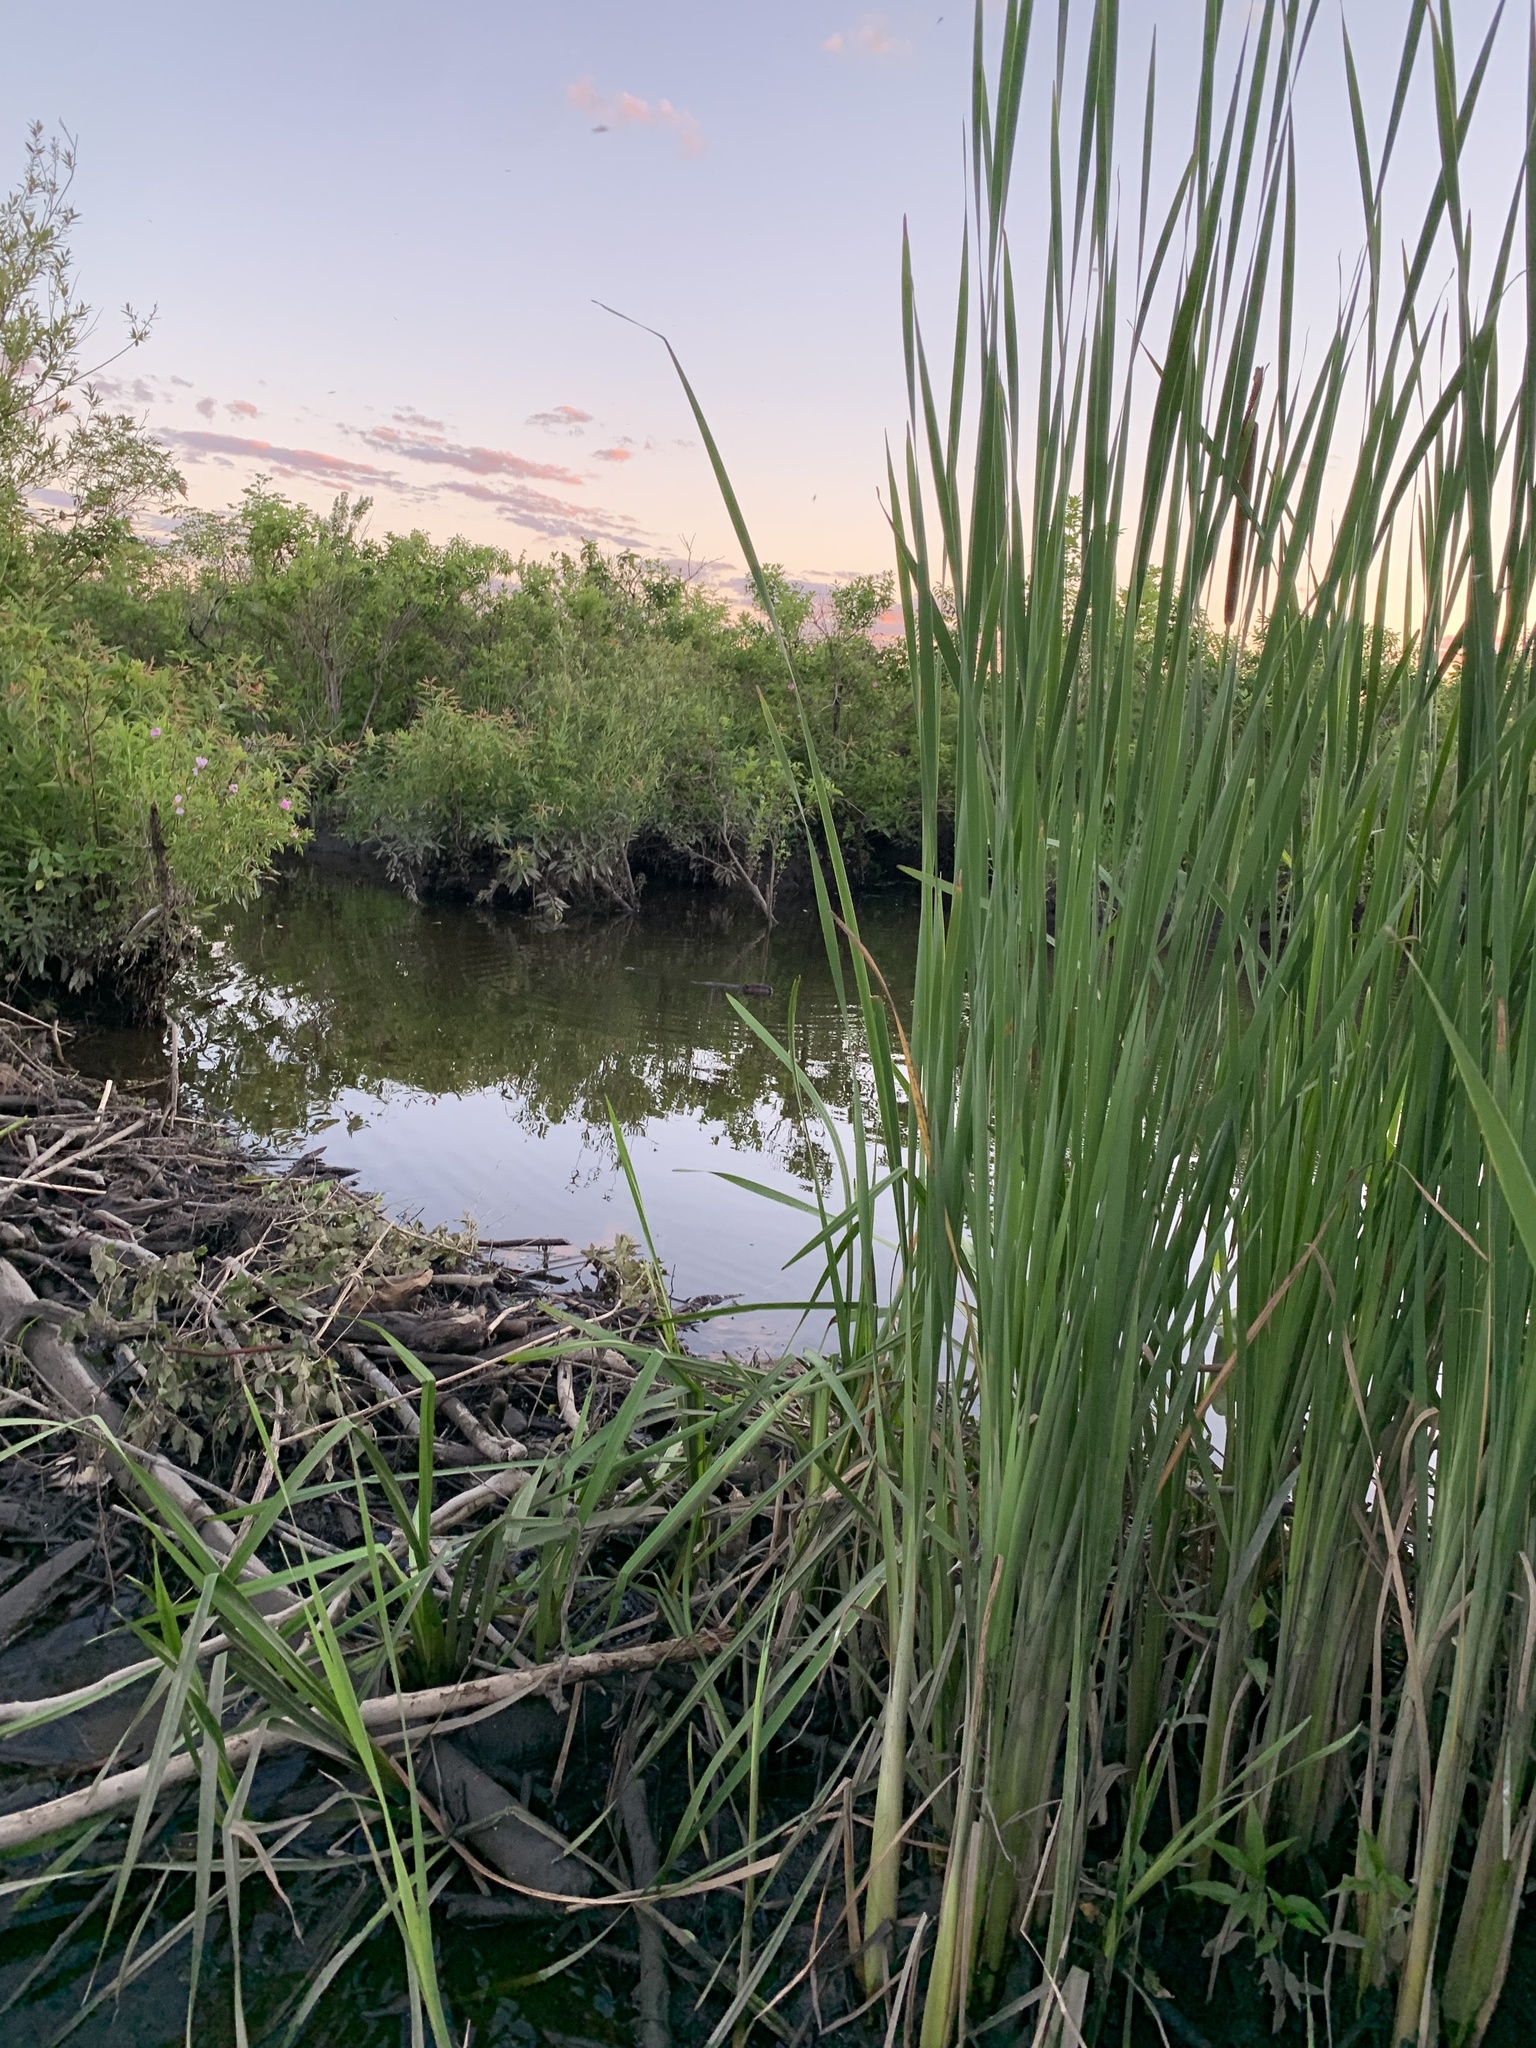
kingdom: Animalia
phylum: Chordata
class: Mammalia
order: Rodentia
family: Castoridae
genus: Castor
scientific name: Castor canadensis
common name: American beaver
